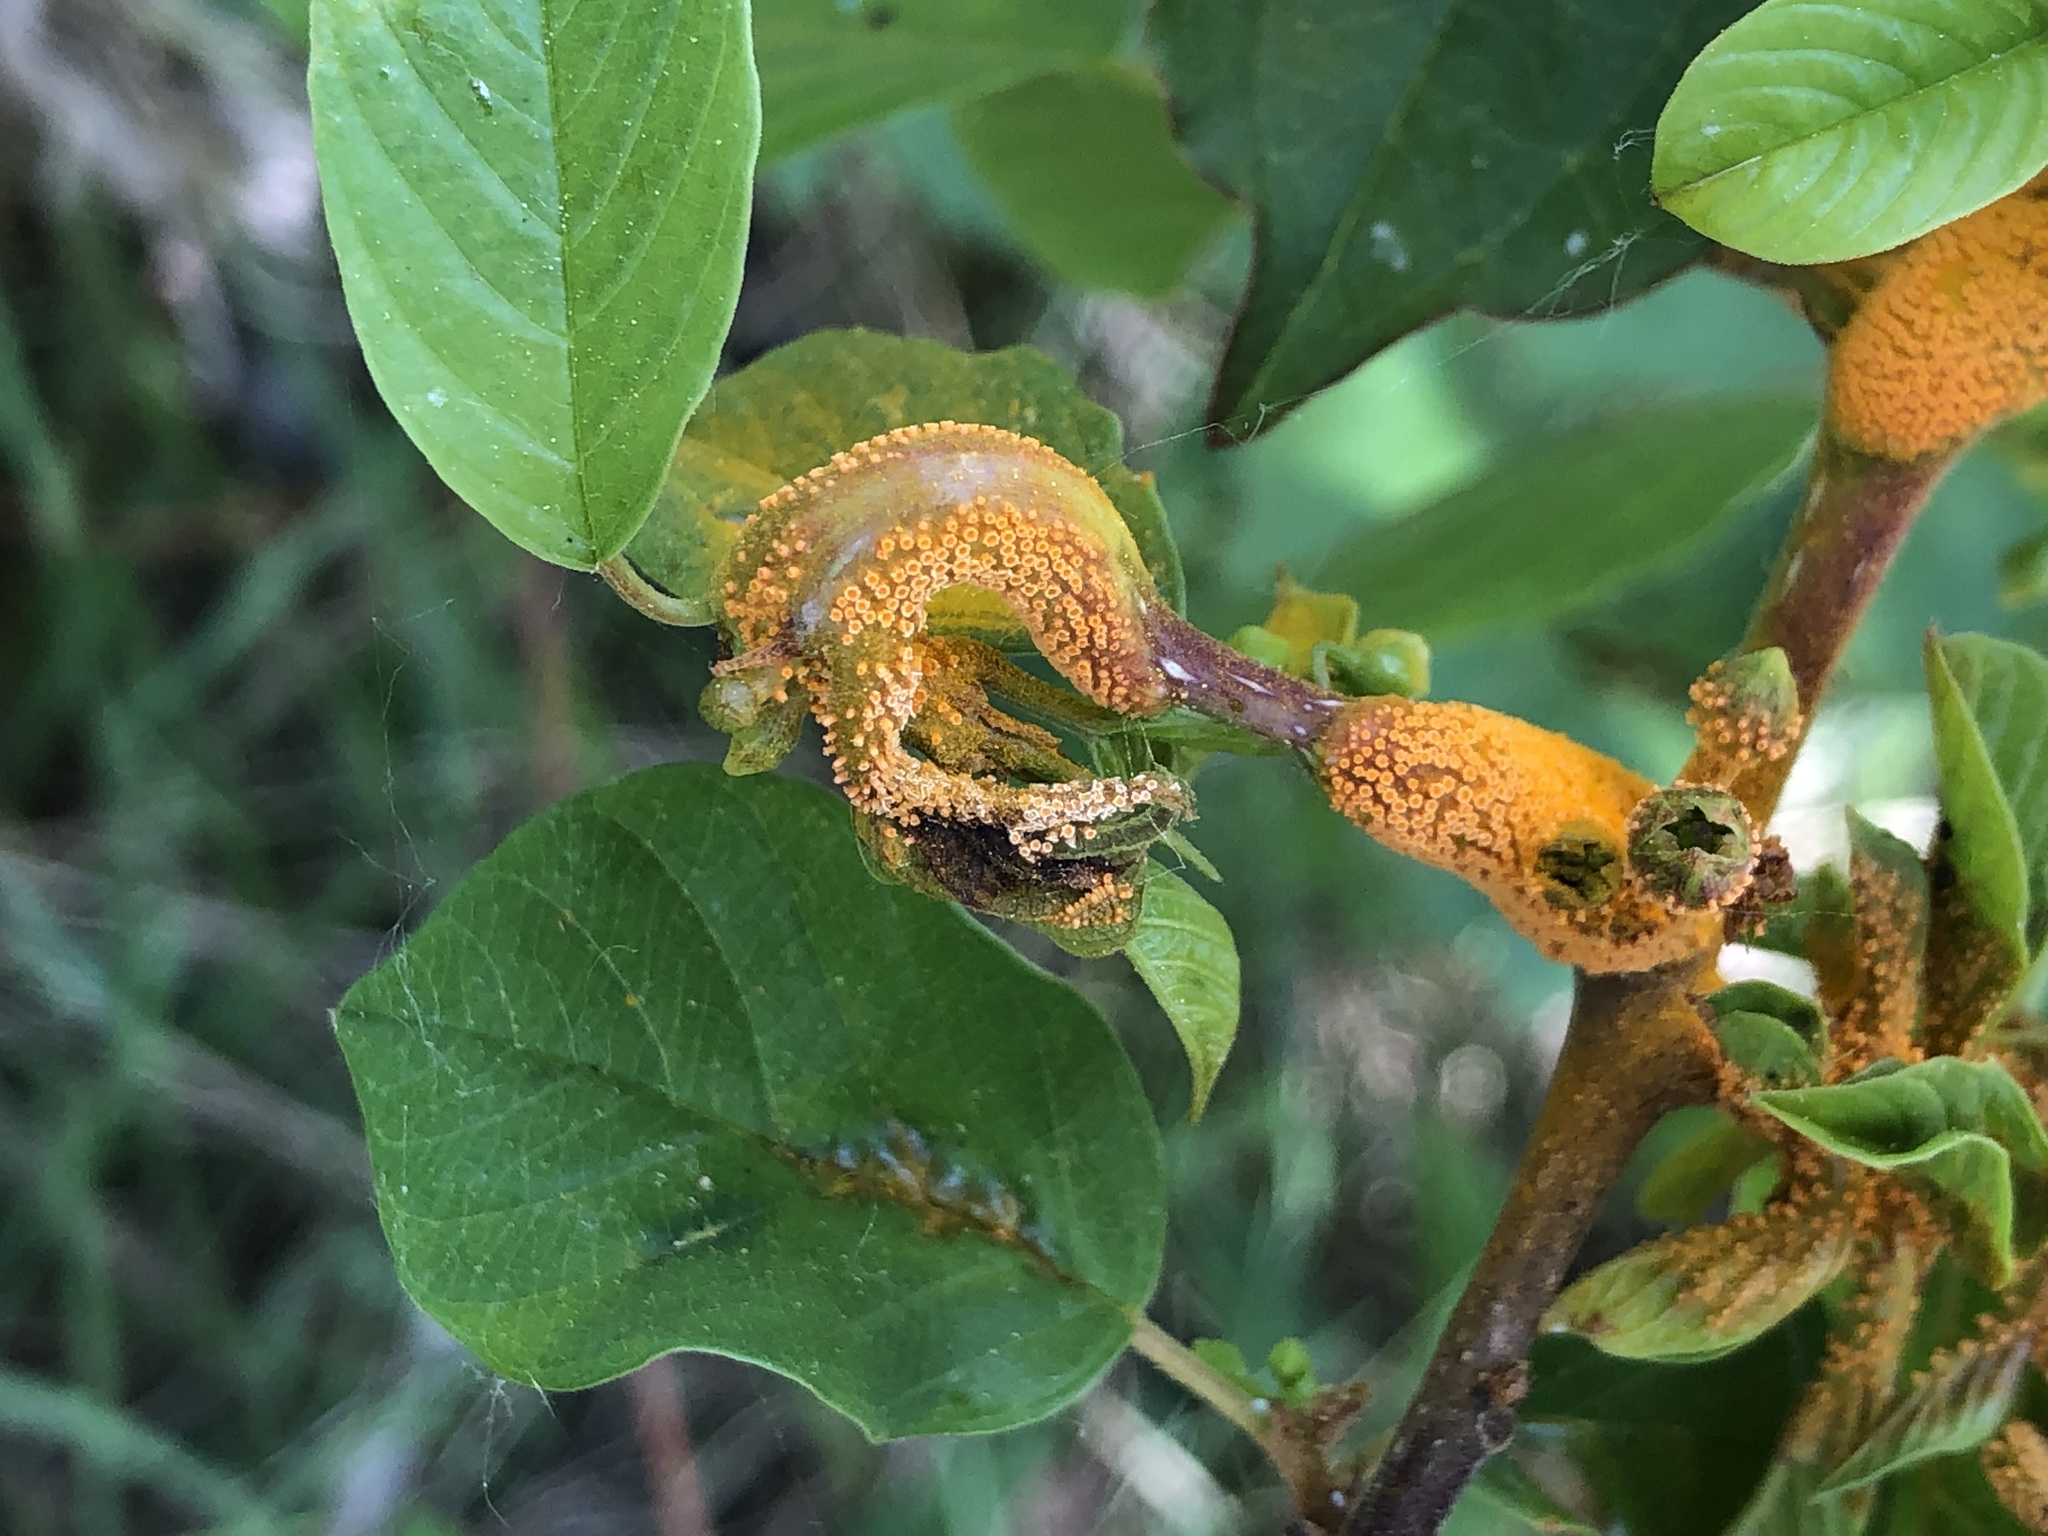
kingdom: Fungi
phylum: Basidiomycota
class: Pucciniomycetes
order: Pucciniales
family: Pucciniaceae
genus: Puccinia
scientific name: Puccinia coronata
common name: Crown rust
